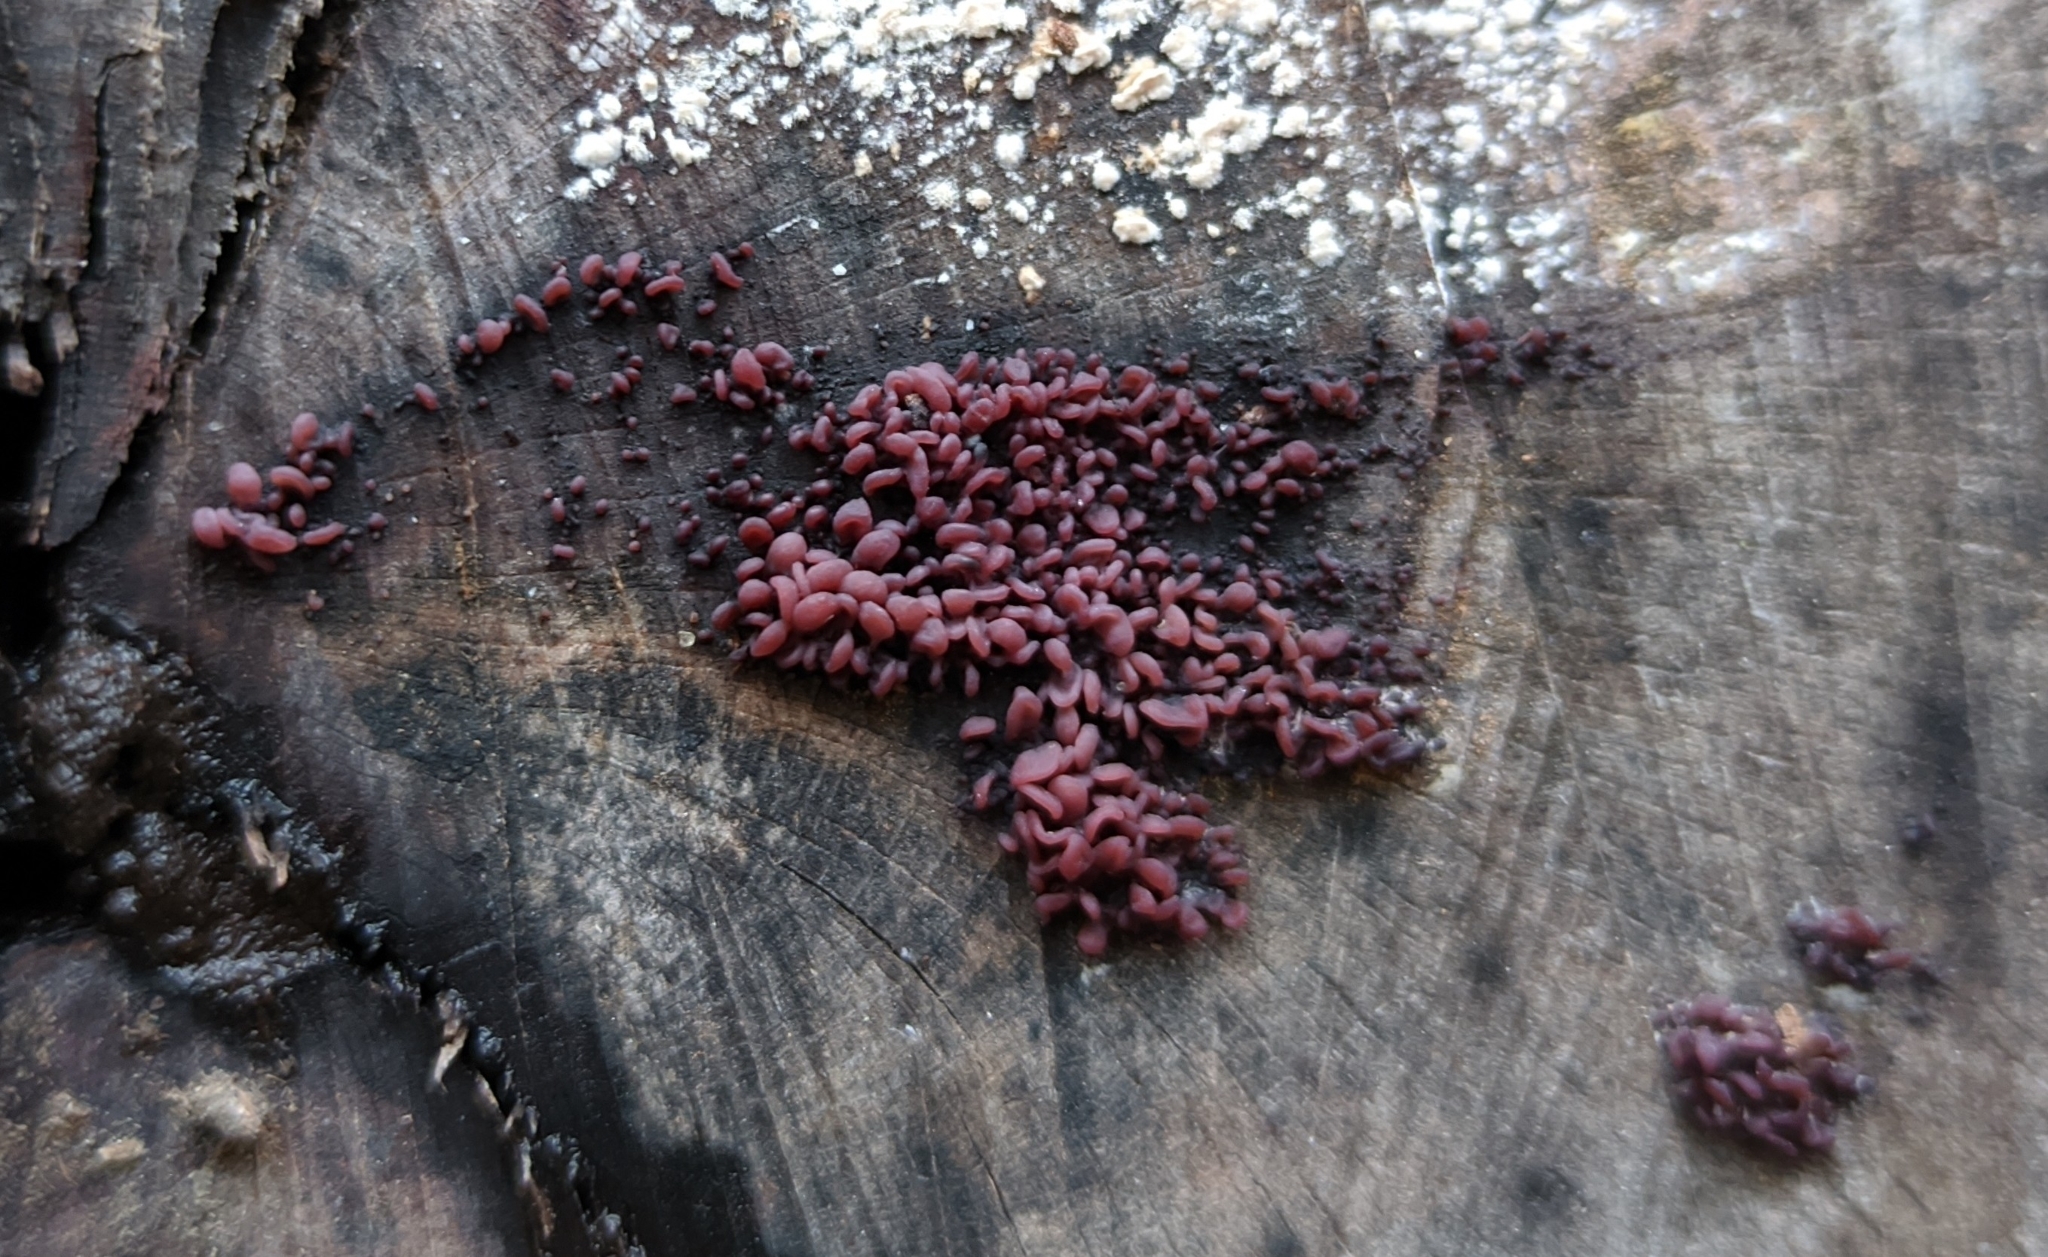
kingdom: Fungi
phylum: Ascomycota
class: Leotiomycetes
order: Helotiales
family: Gelatinodiscaceae
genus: Ascocoryne
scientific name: Ascocoryne sarcoides
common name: Purple jellydisc
